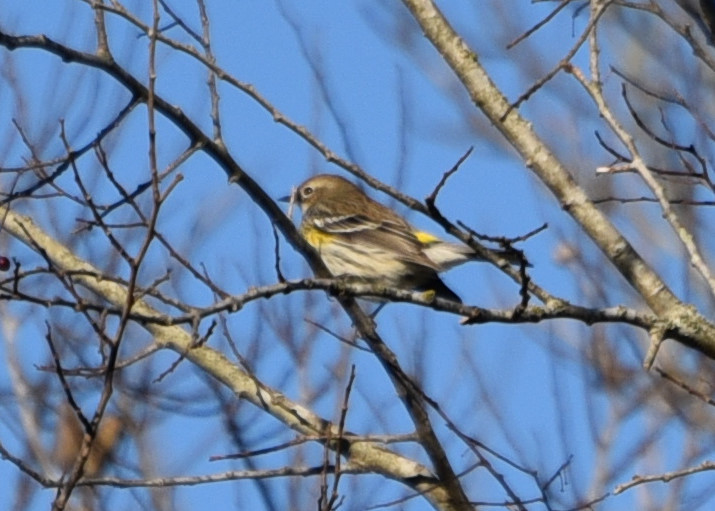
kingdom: Animalia
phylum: Chordata
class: Aves
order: Passeriformes
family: Parulidae
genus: Setophaga
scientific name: Setophaga coronata
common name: Myrtle warbler
